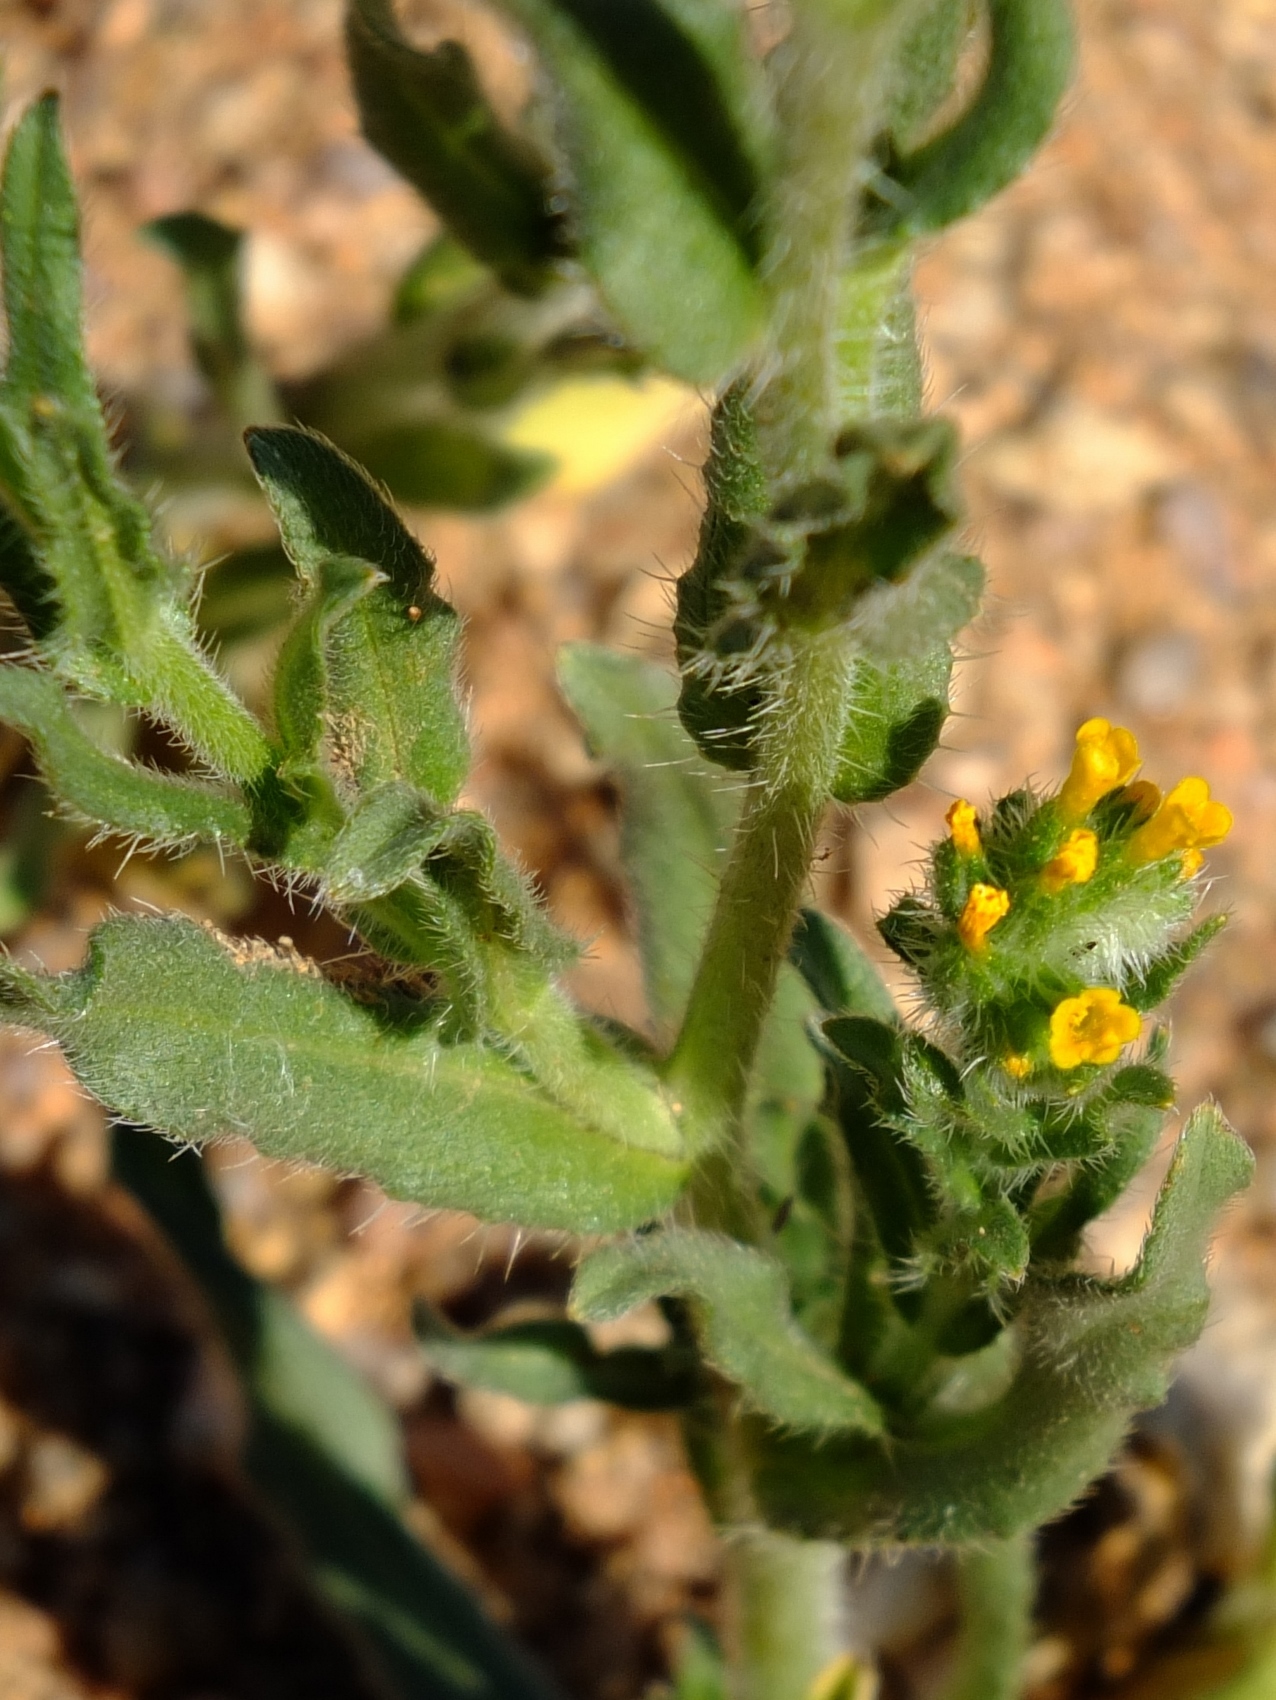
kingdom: Plantae
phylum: Tracheophyta
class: Magnoliopsida
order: Boraginales
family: Boraginaceae
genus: Amsinckia
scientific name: Amsinckia menziesii
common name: Menzies' fiddleneck
